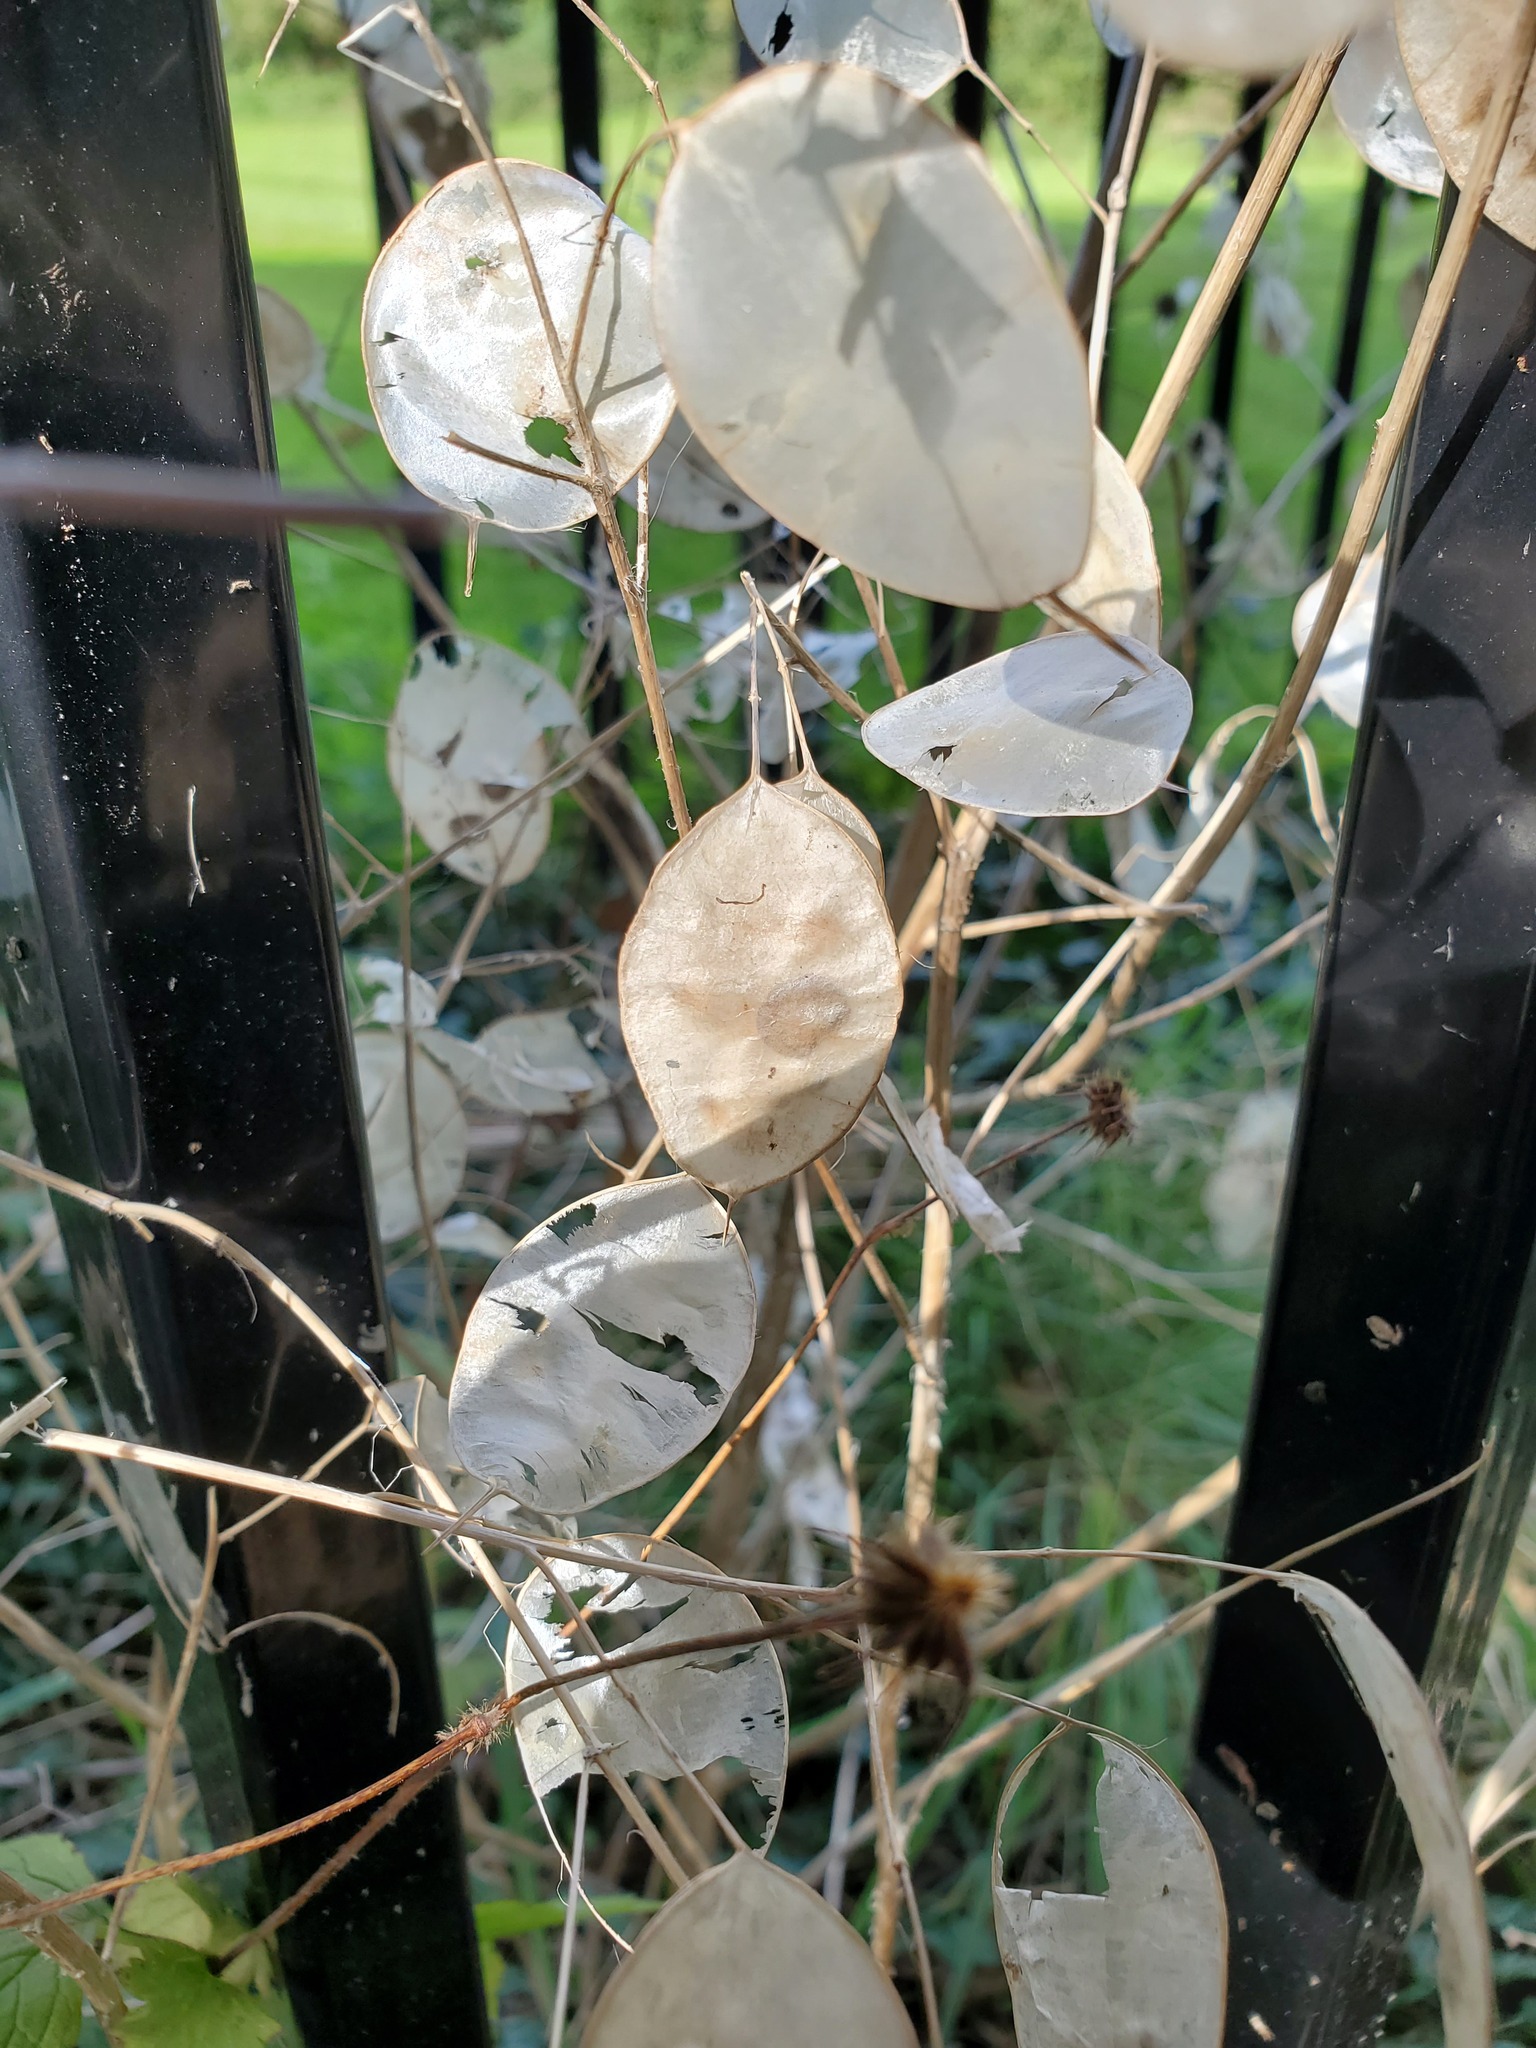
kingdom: Plantae
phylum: Tracheophyta
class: Magnoliopsida
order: Brassicales
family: Brassicaceae
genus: Lunaria
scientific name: Lunaria annua
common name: Honesty
